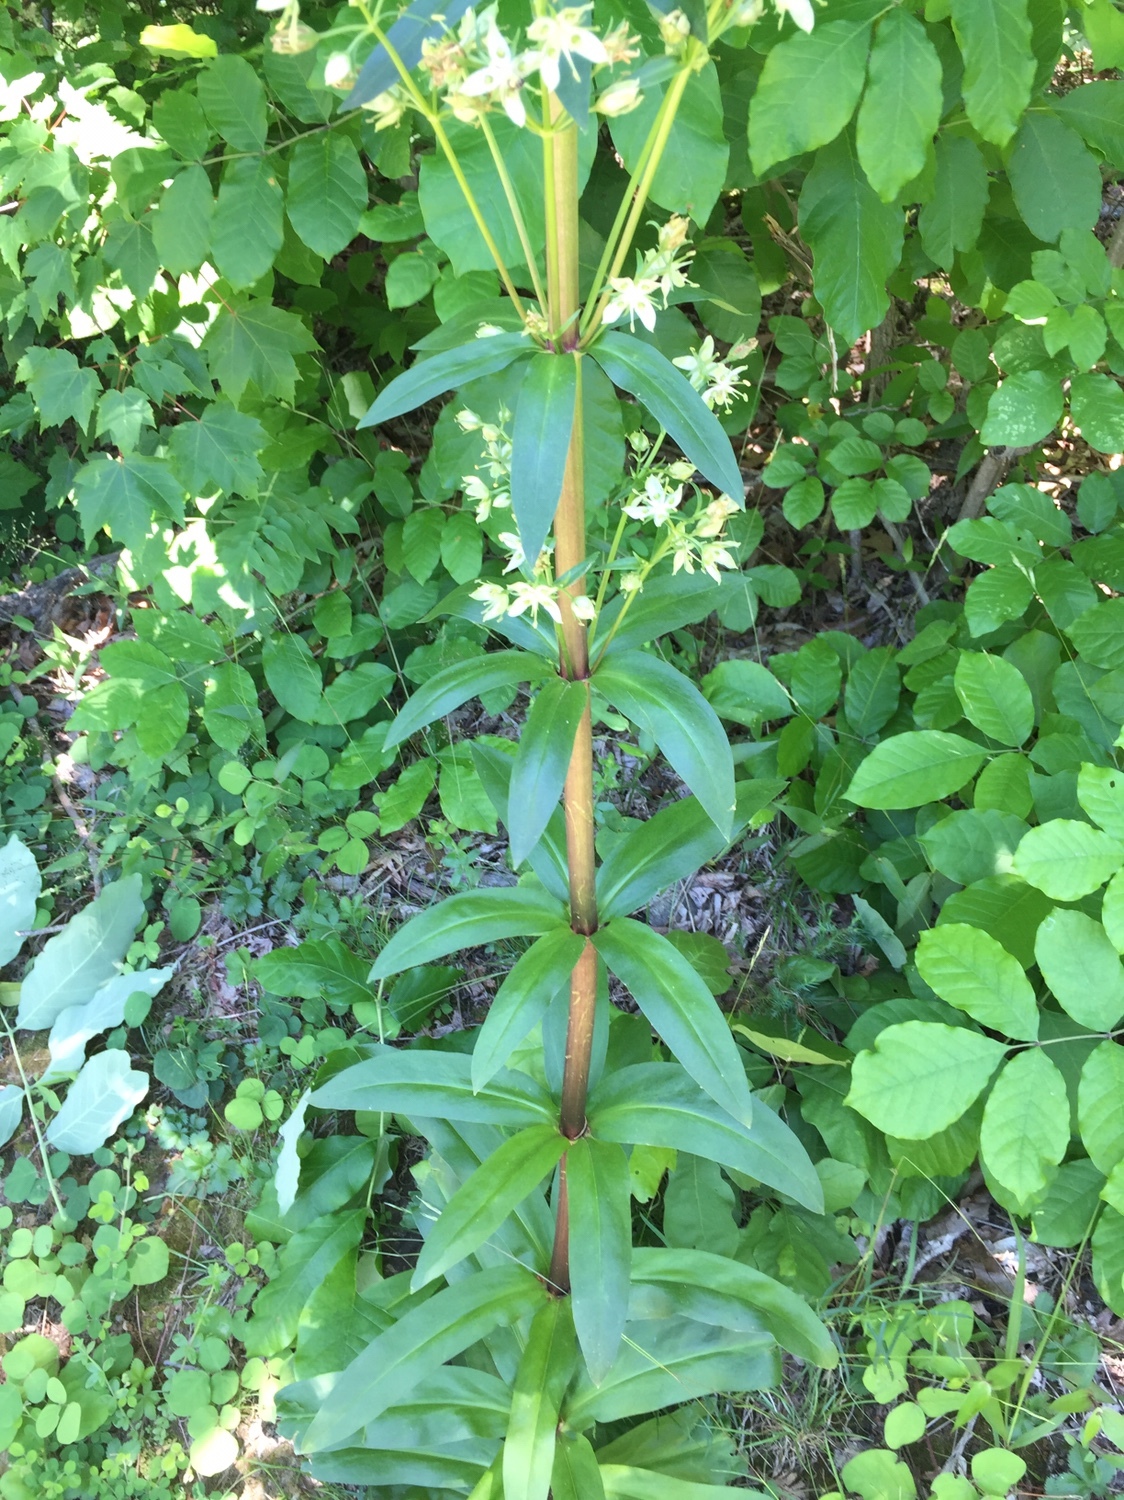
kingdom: Plantae
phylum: Tracheophyta
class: Magnoliopsida
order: Gentianales
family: Gentianaceae
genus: Frasera
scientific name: Frasera caroliniensis
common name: American columbo
